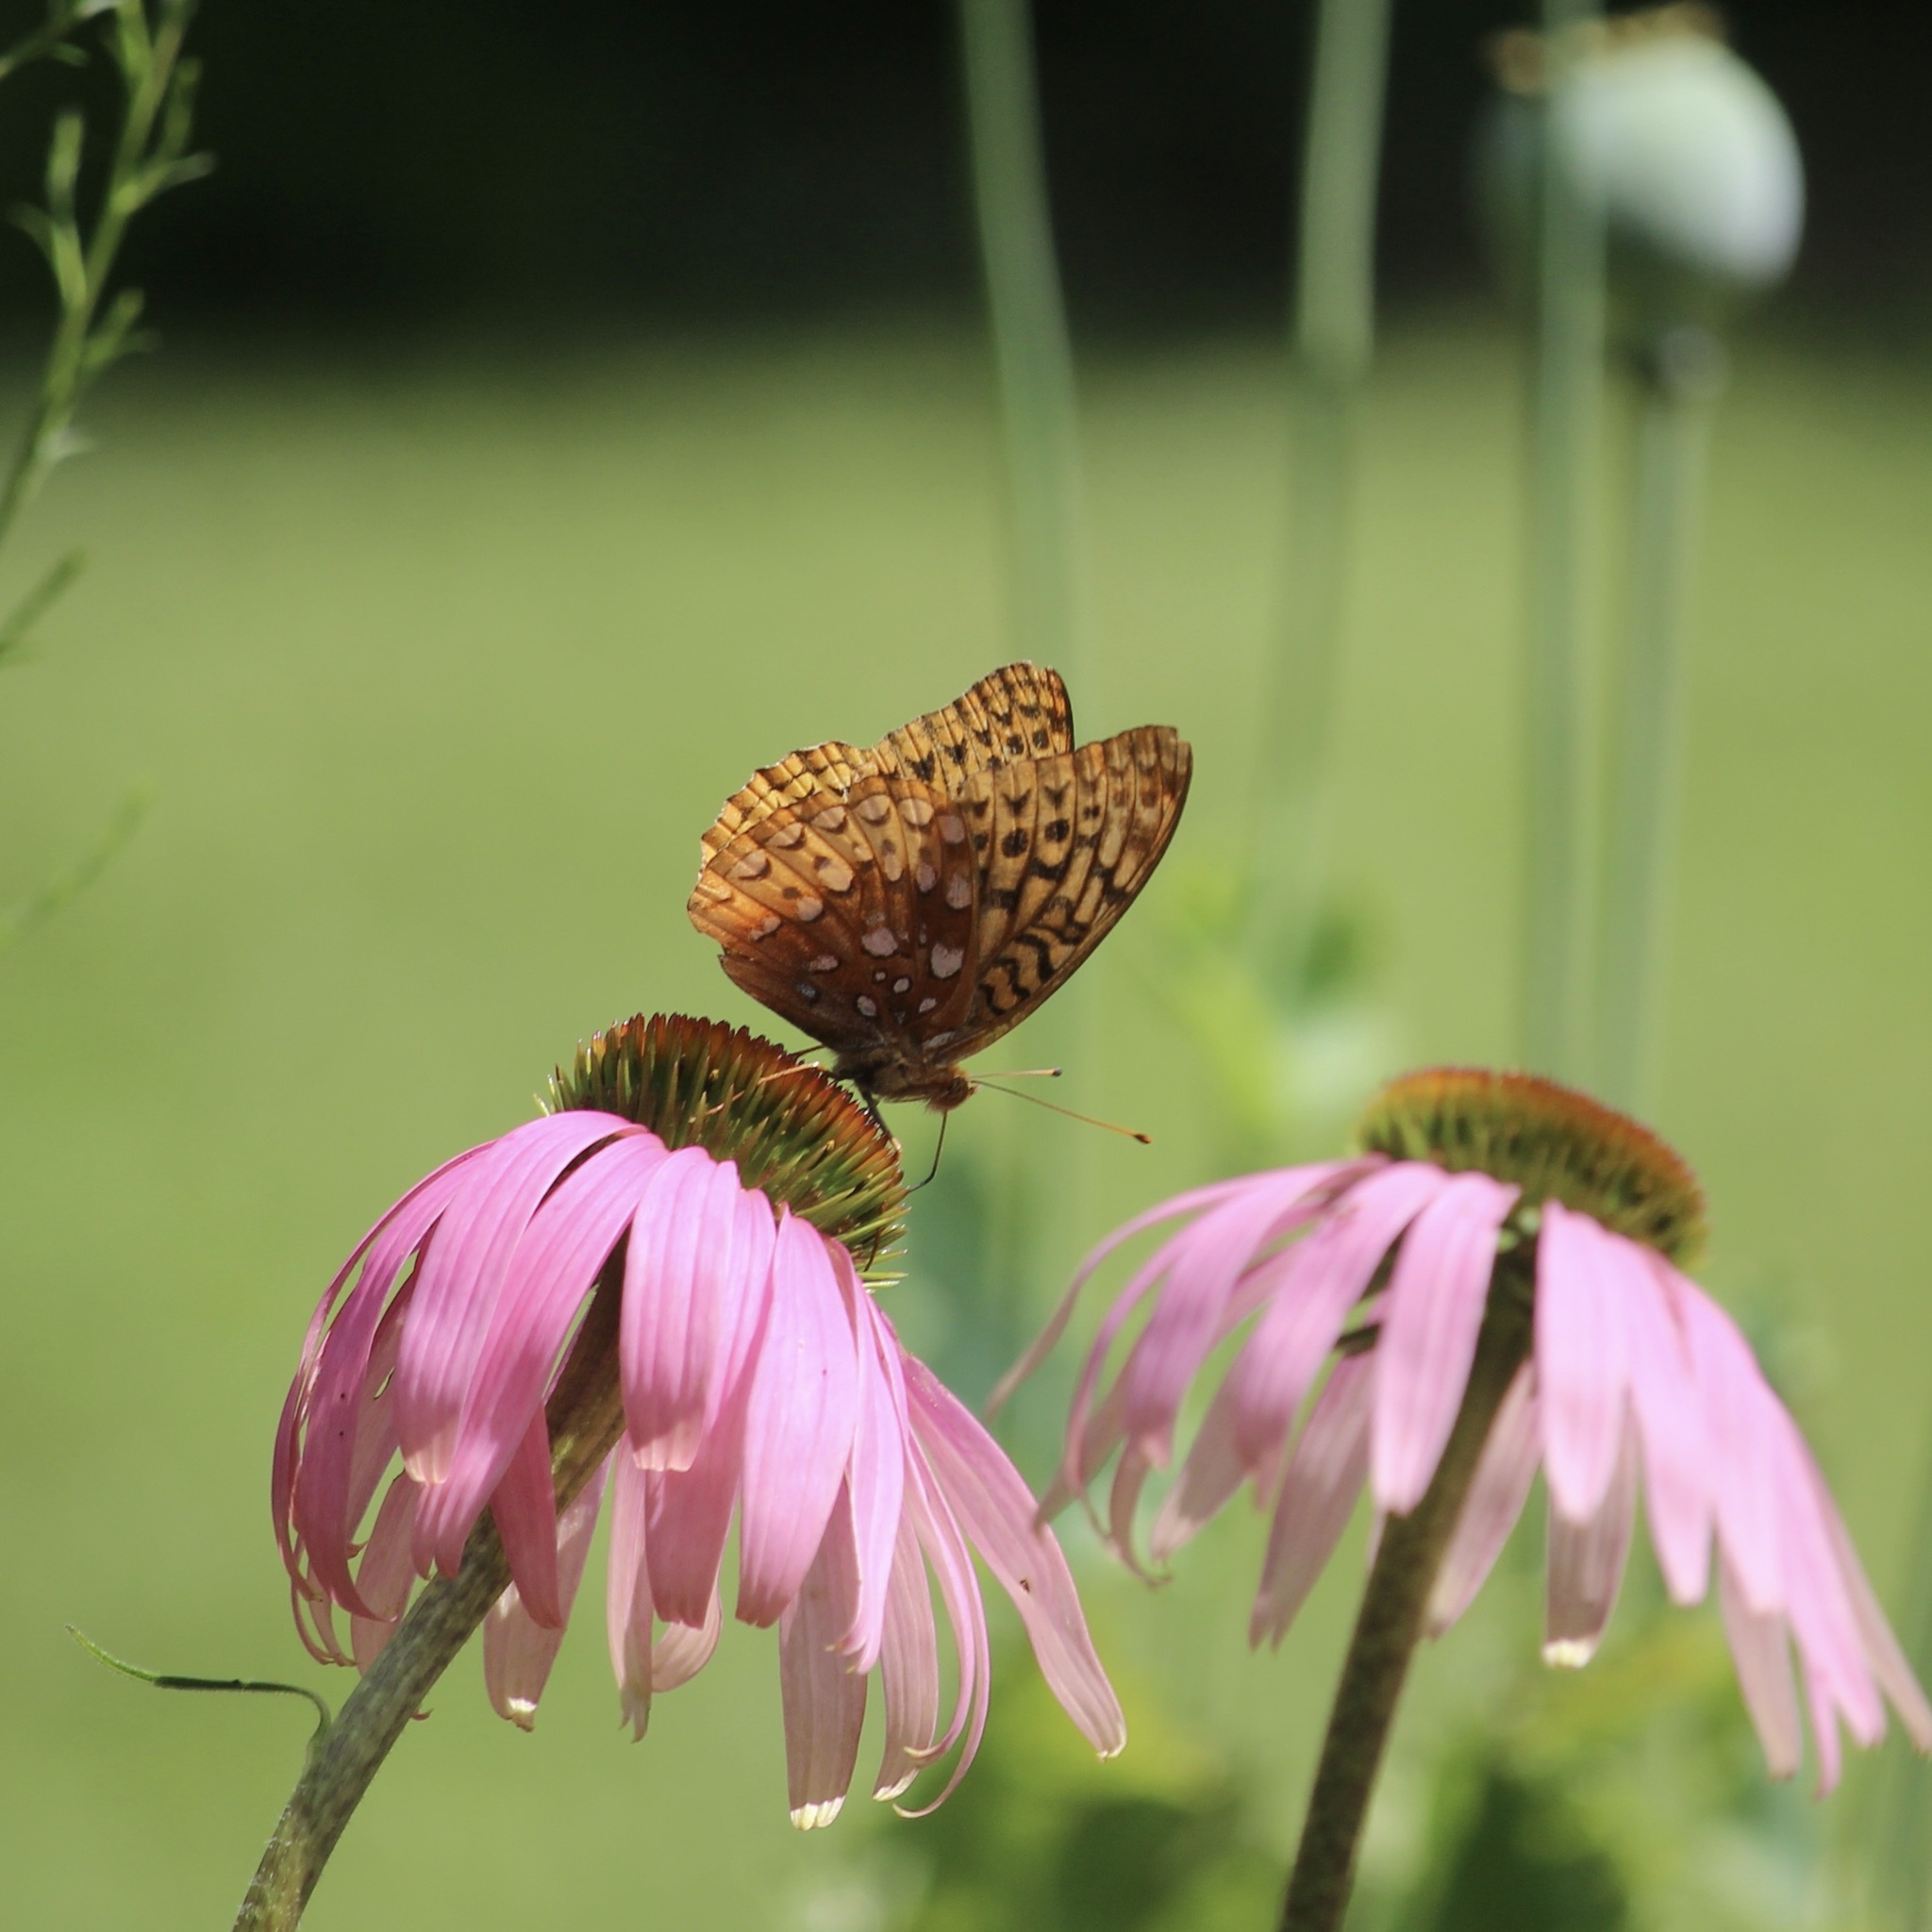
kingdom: Animalia
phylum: Arthropoda
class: Insecta
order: Lepidoptera
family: Nymphalidae
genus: Speyeria
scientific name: Speyeria cybele
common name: Great spangled fritillary
